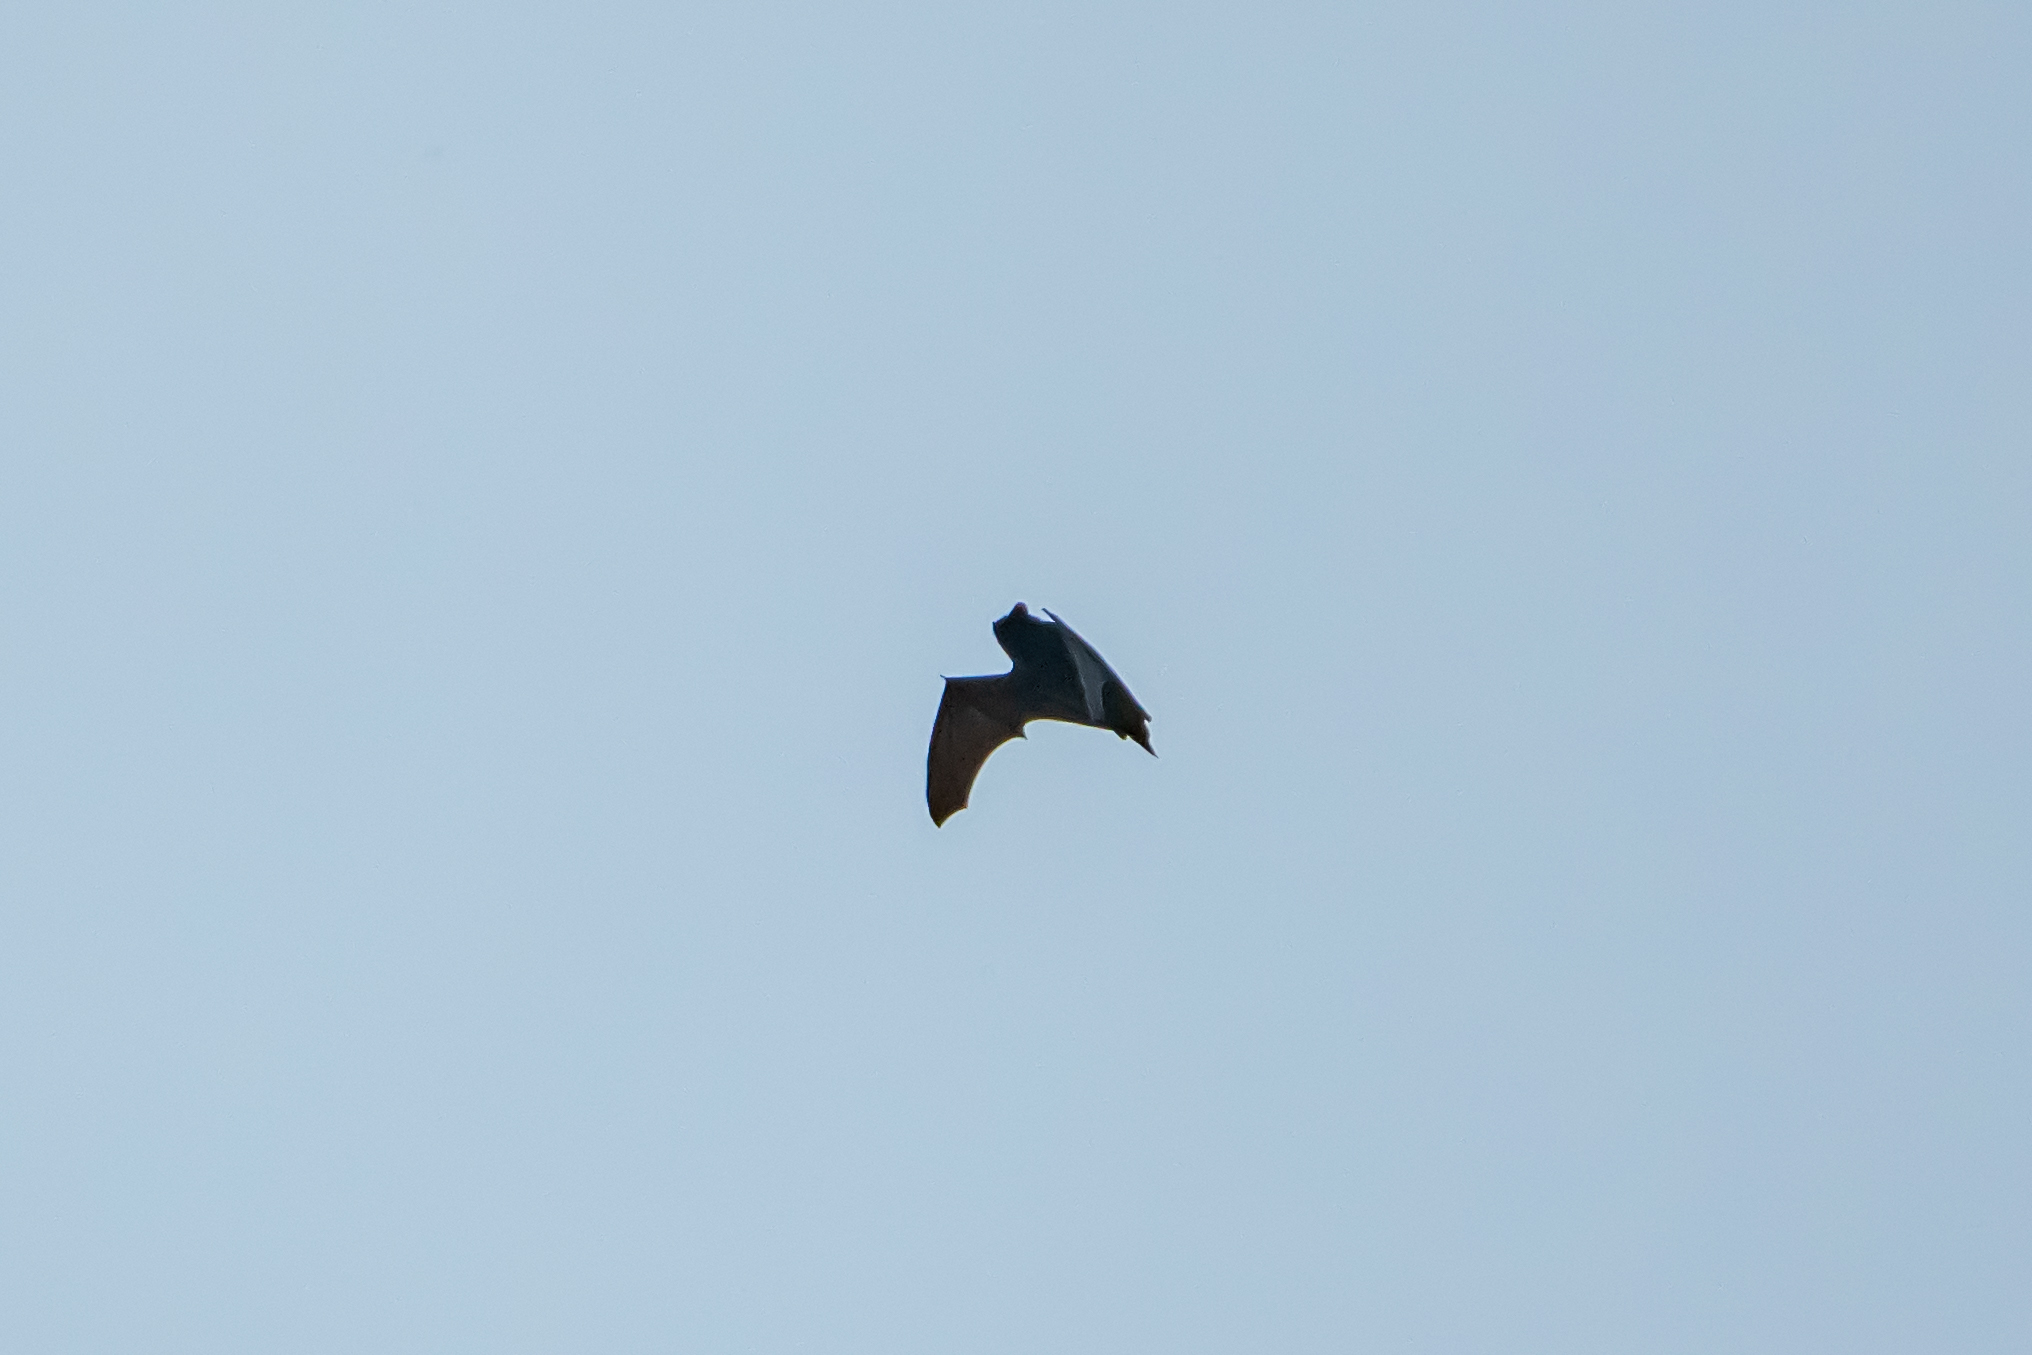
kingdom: Animalia
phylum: Chordata
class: Mammalia
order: Chiroptera
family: Vespertilionidae
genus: Nyctalus
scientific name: Nyctalus azoreum
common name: Azores noctule
